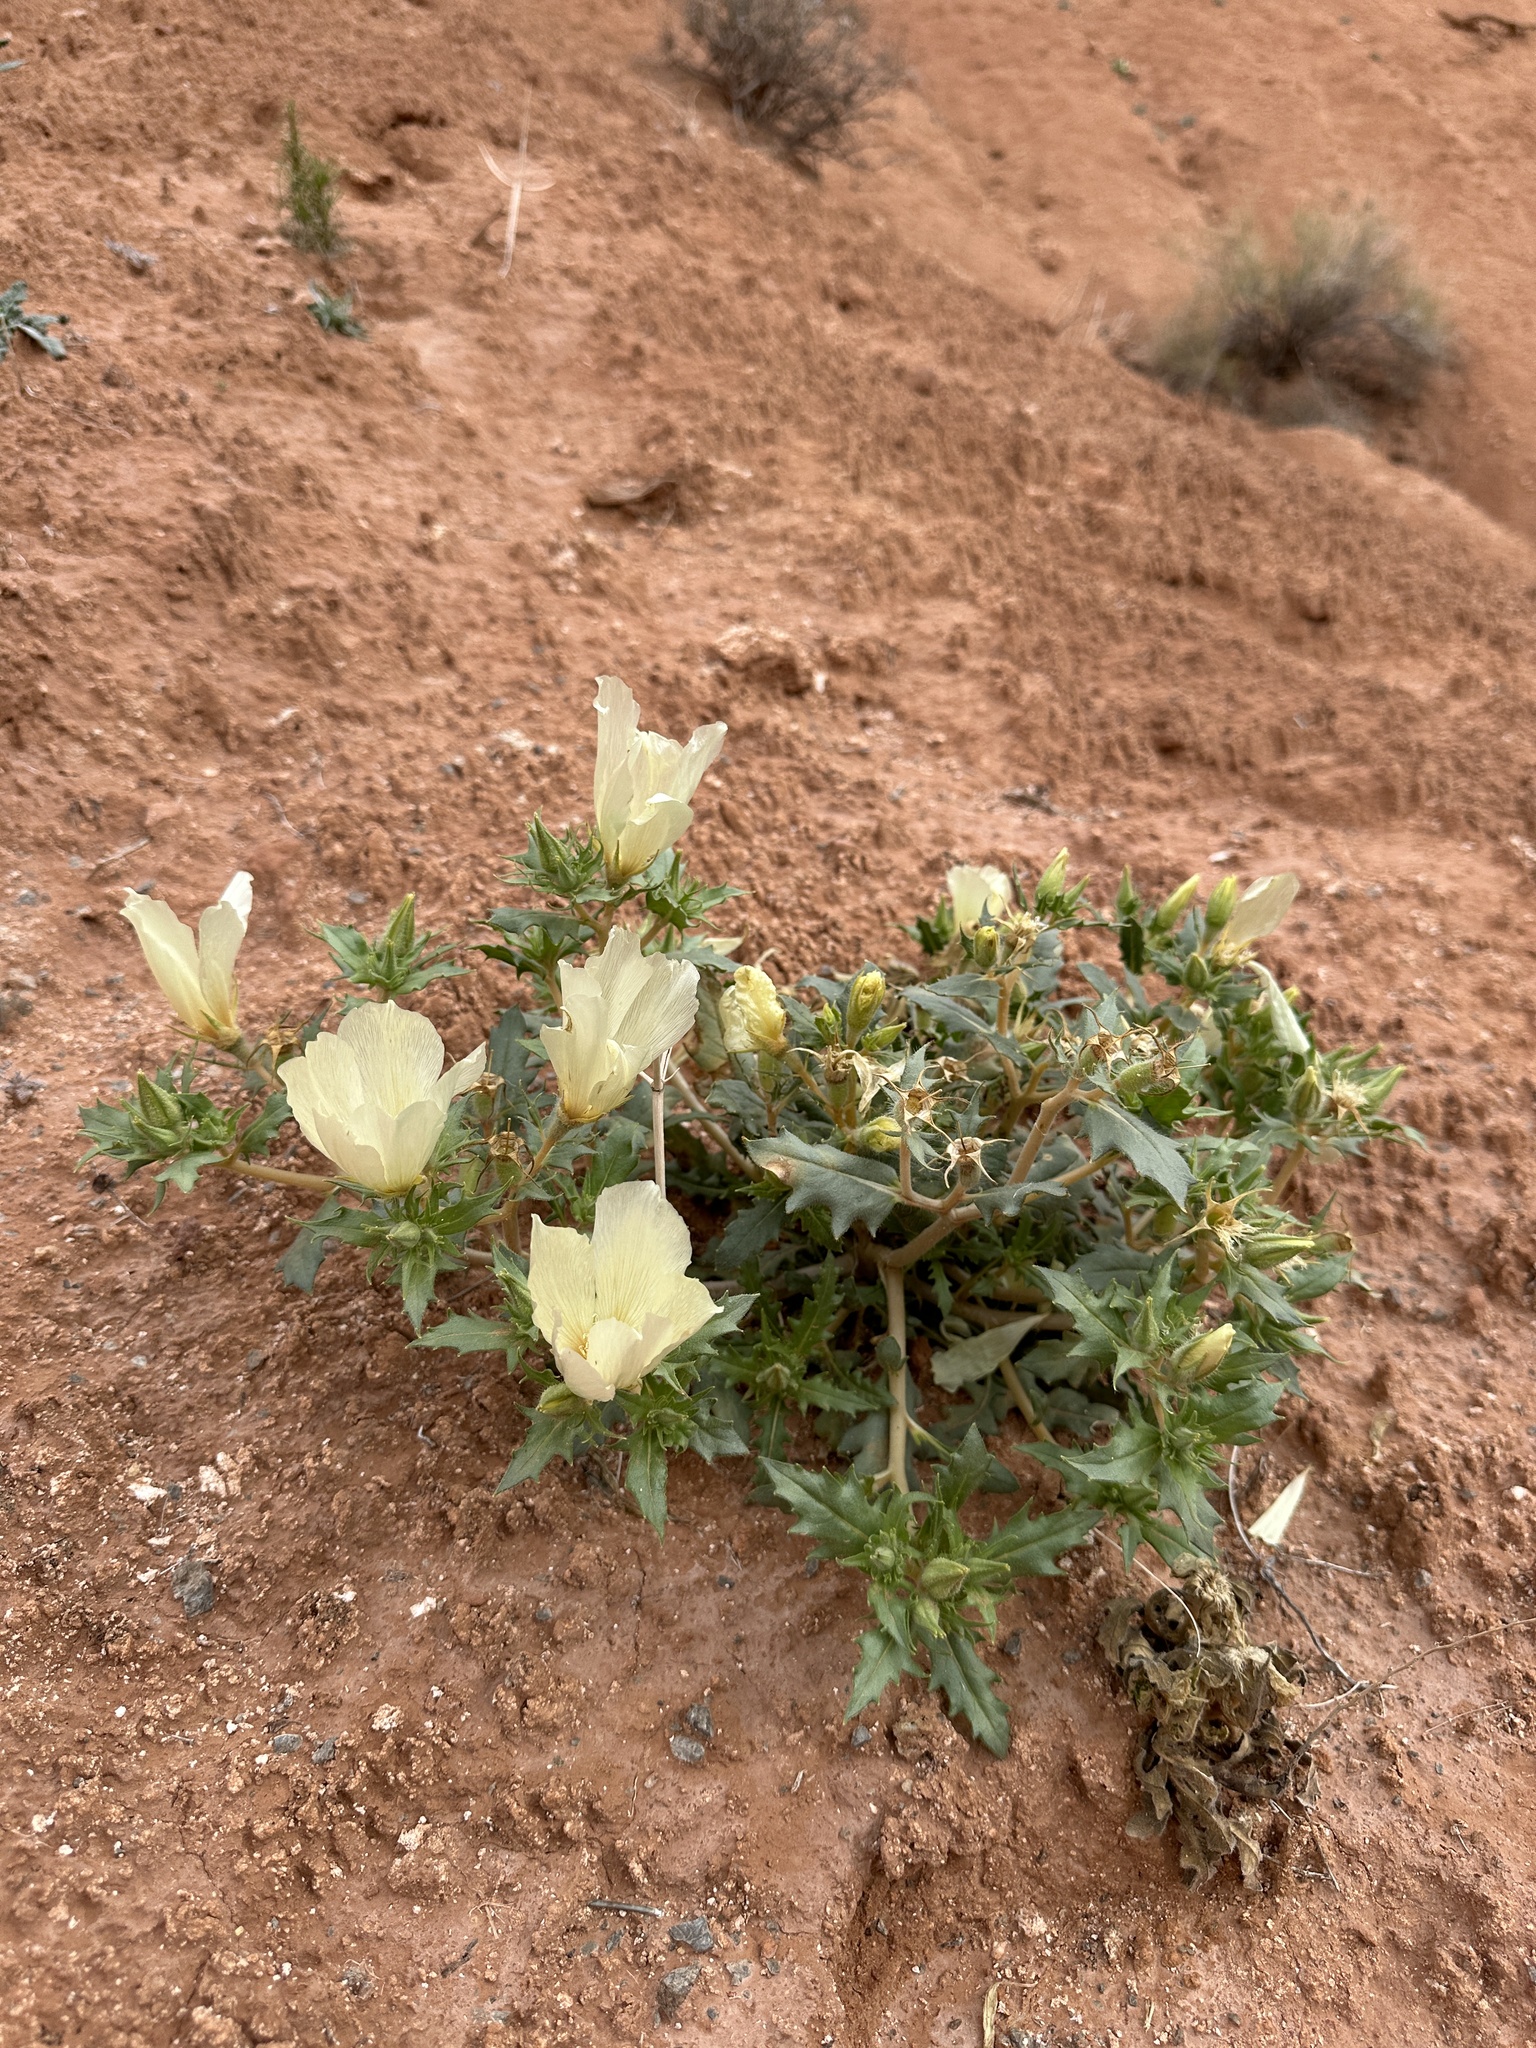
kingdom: Plantae
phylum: Tracheophyta
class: Magnoliopsida
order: Cornales
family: Loasaceae
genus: Mentzelia
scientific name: Mentzelia tricuspis
